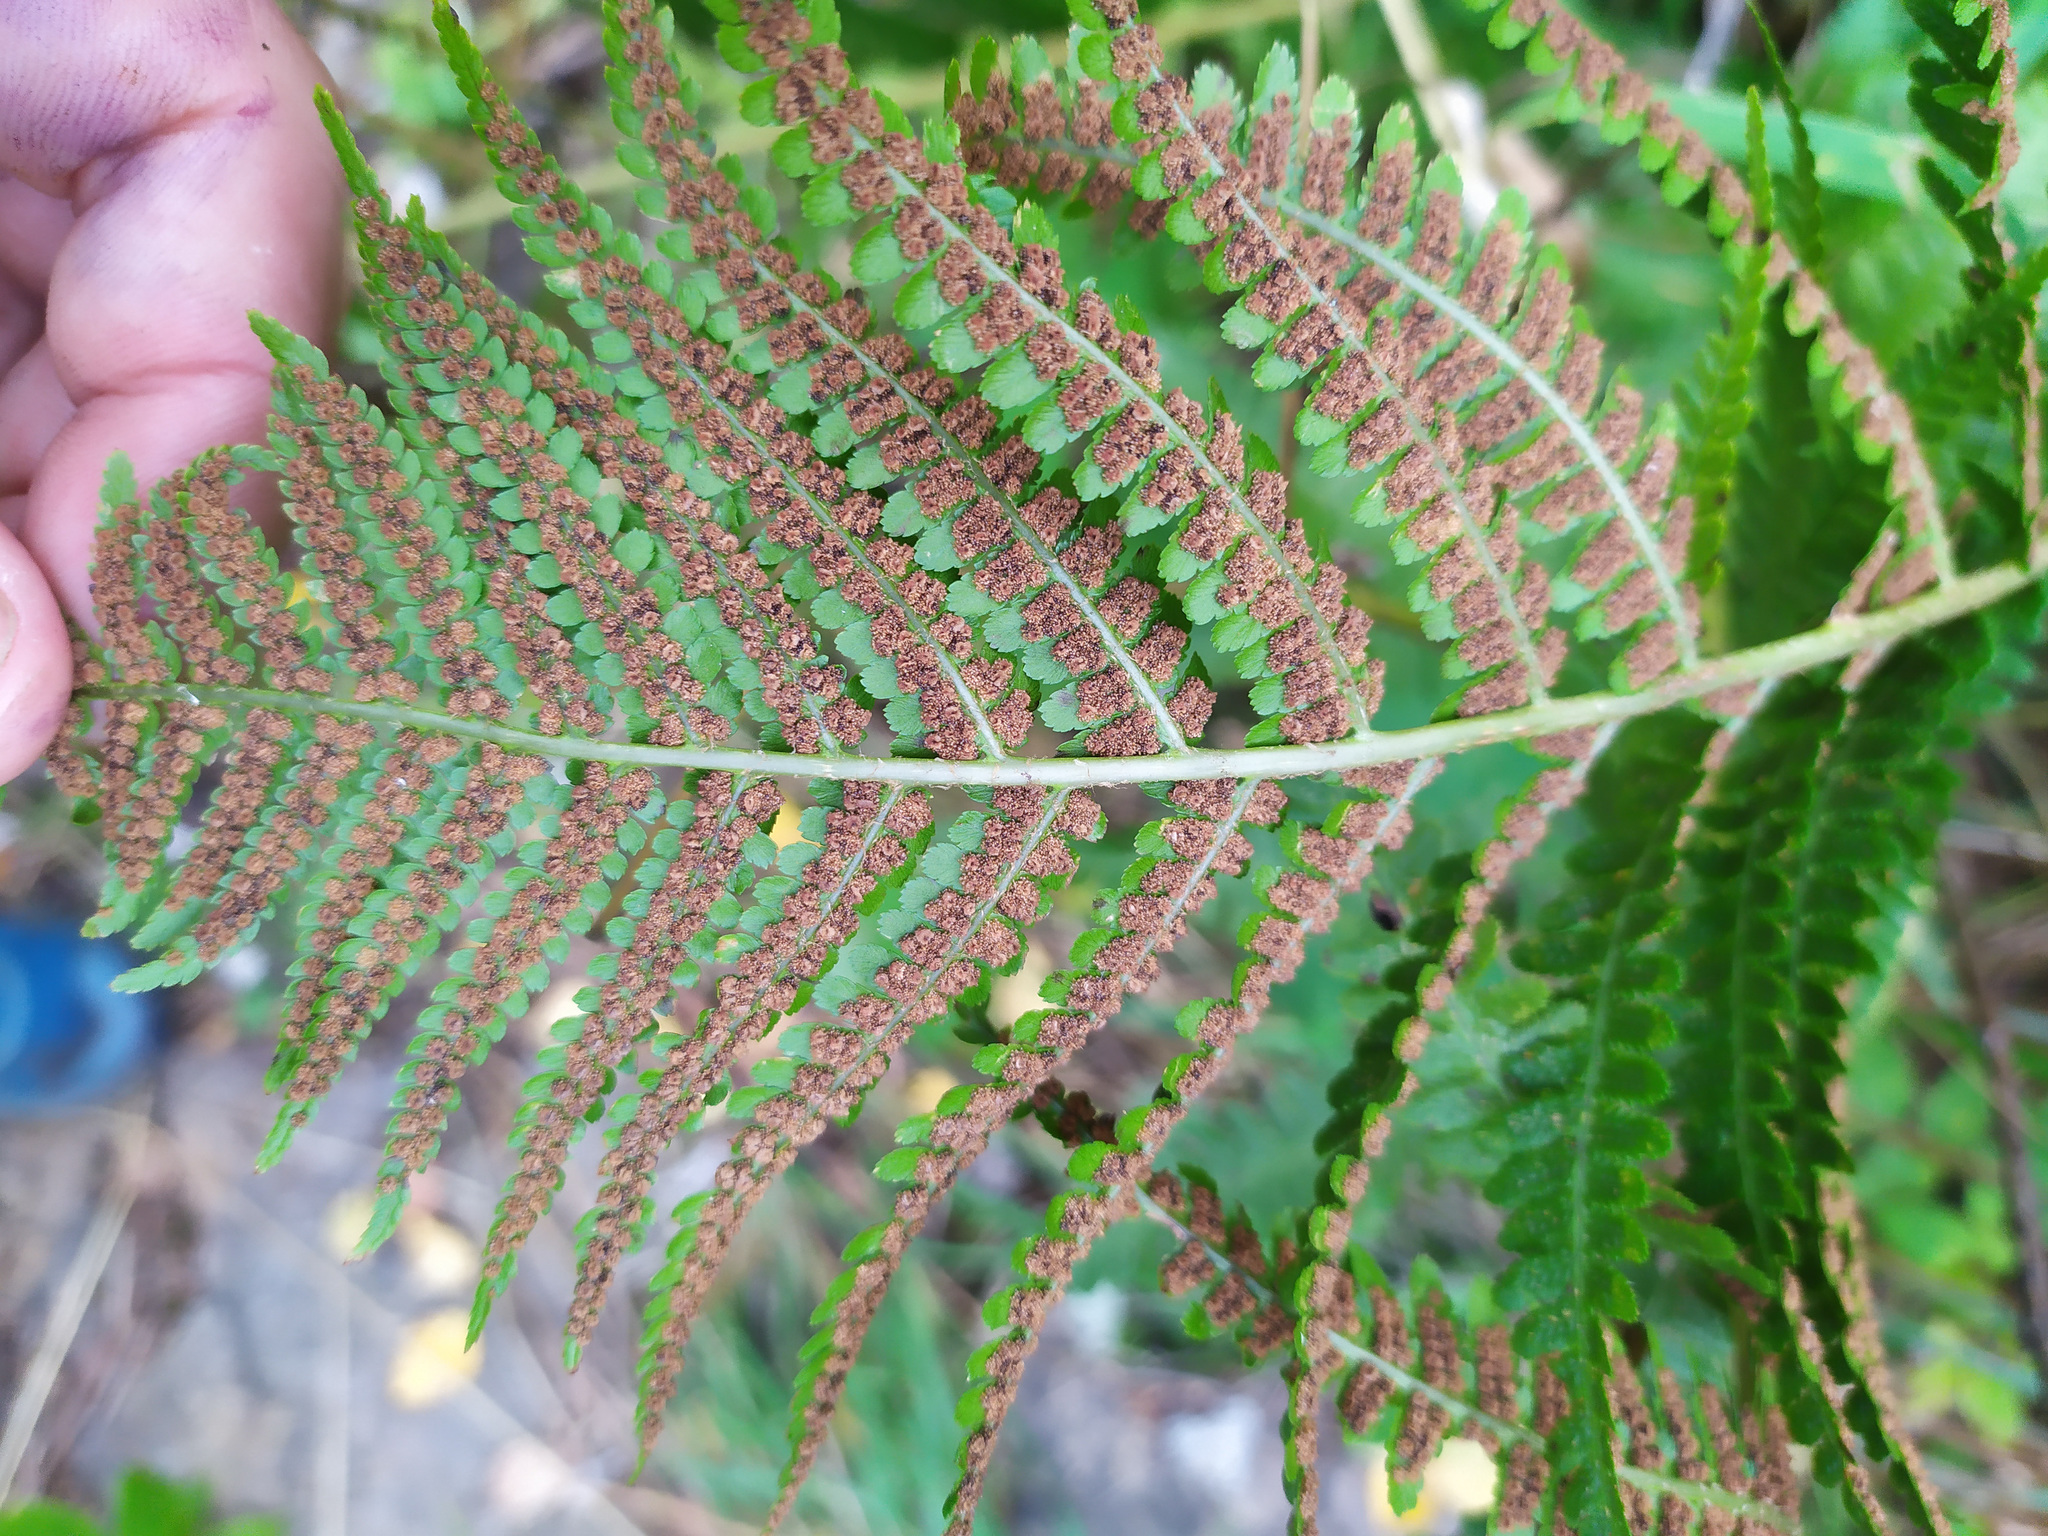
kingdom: Plantae
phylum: Tracheophyta
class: Polypodiopsida
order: Polypodiales
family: Dryopteridaceae
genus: Dryopteris
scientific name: Dryopteris filix-mas
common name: Male fern
